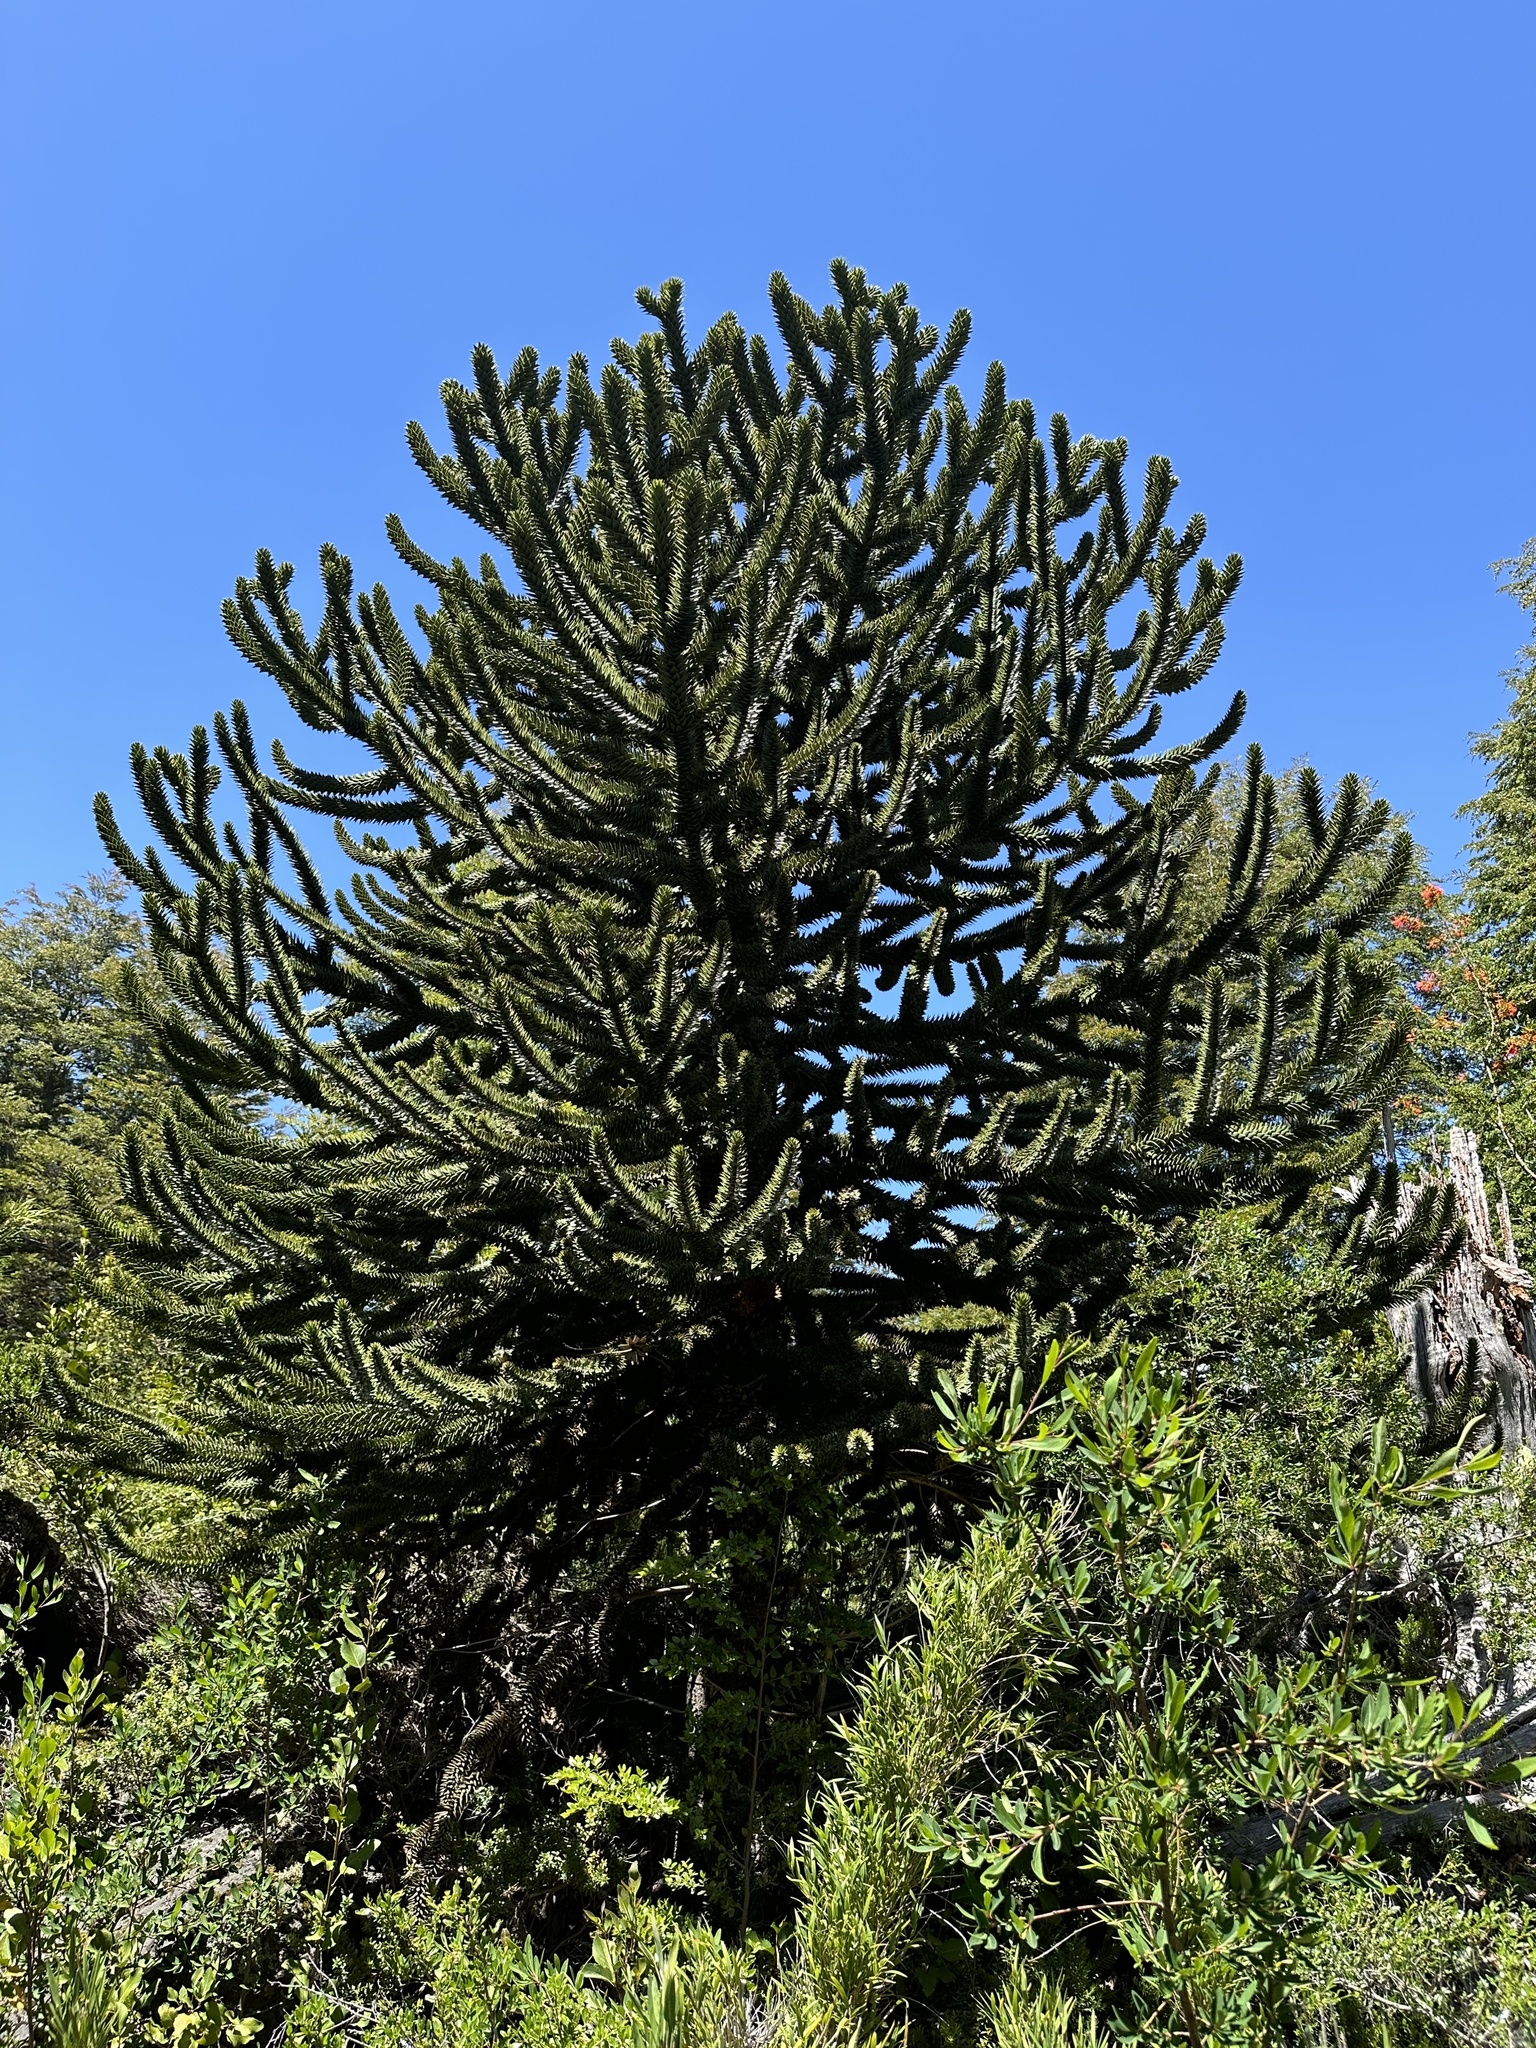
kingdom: Plantae
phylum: Tracheophyta
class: Pinopsida
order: Pinales
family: Araucariaceae
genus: Araucaria
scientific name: Araucaria araucana
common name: Monkey-puzzle
